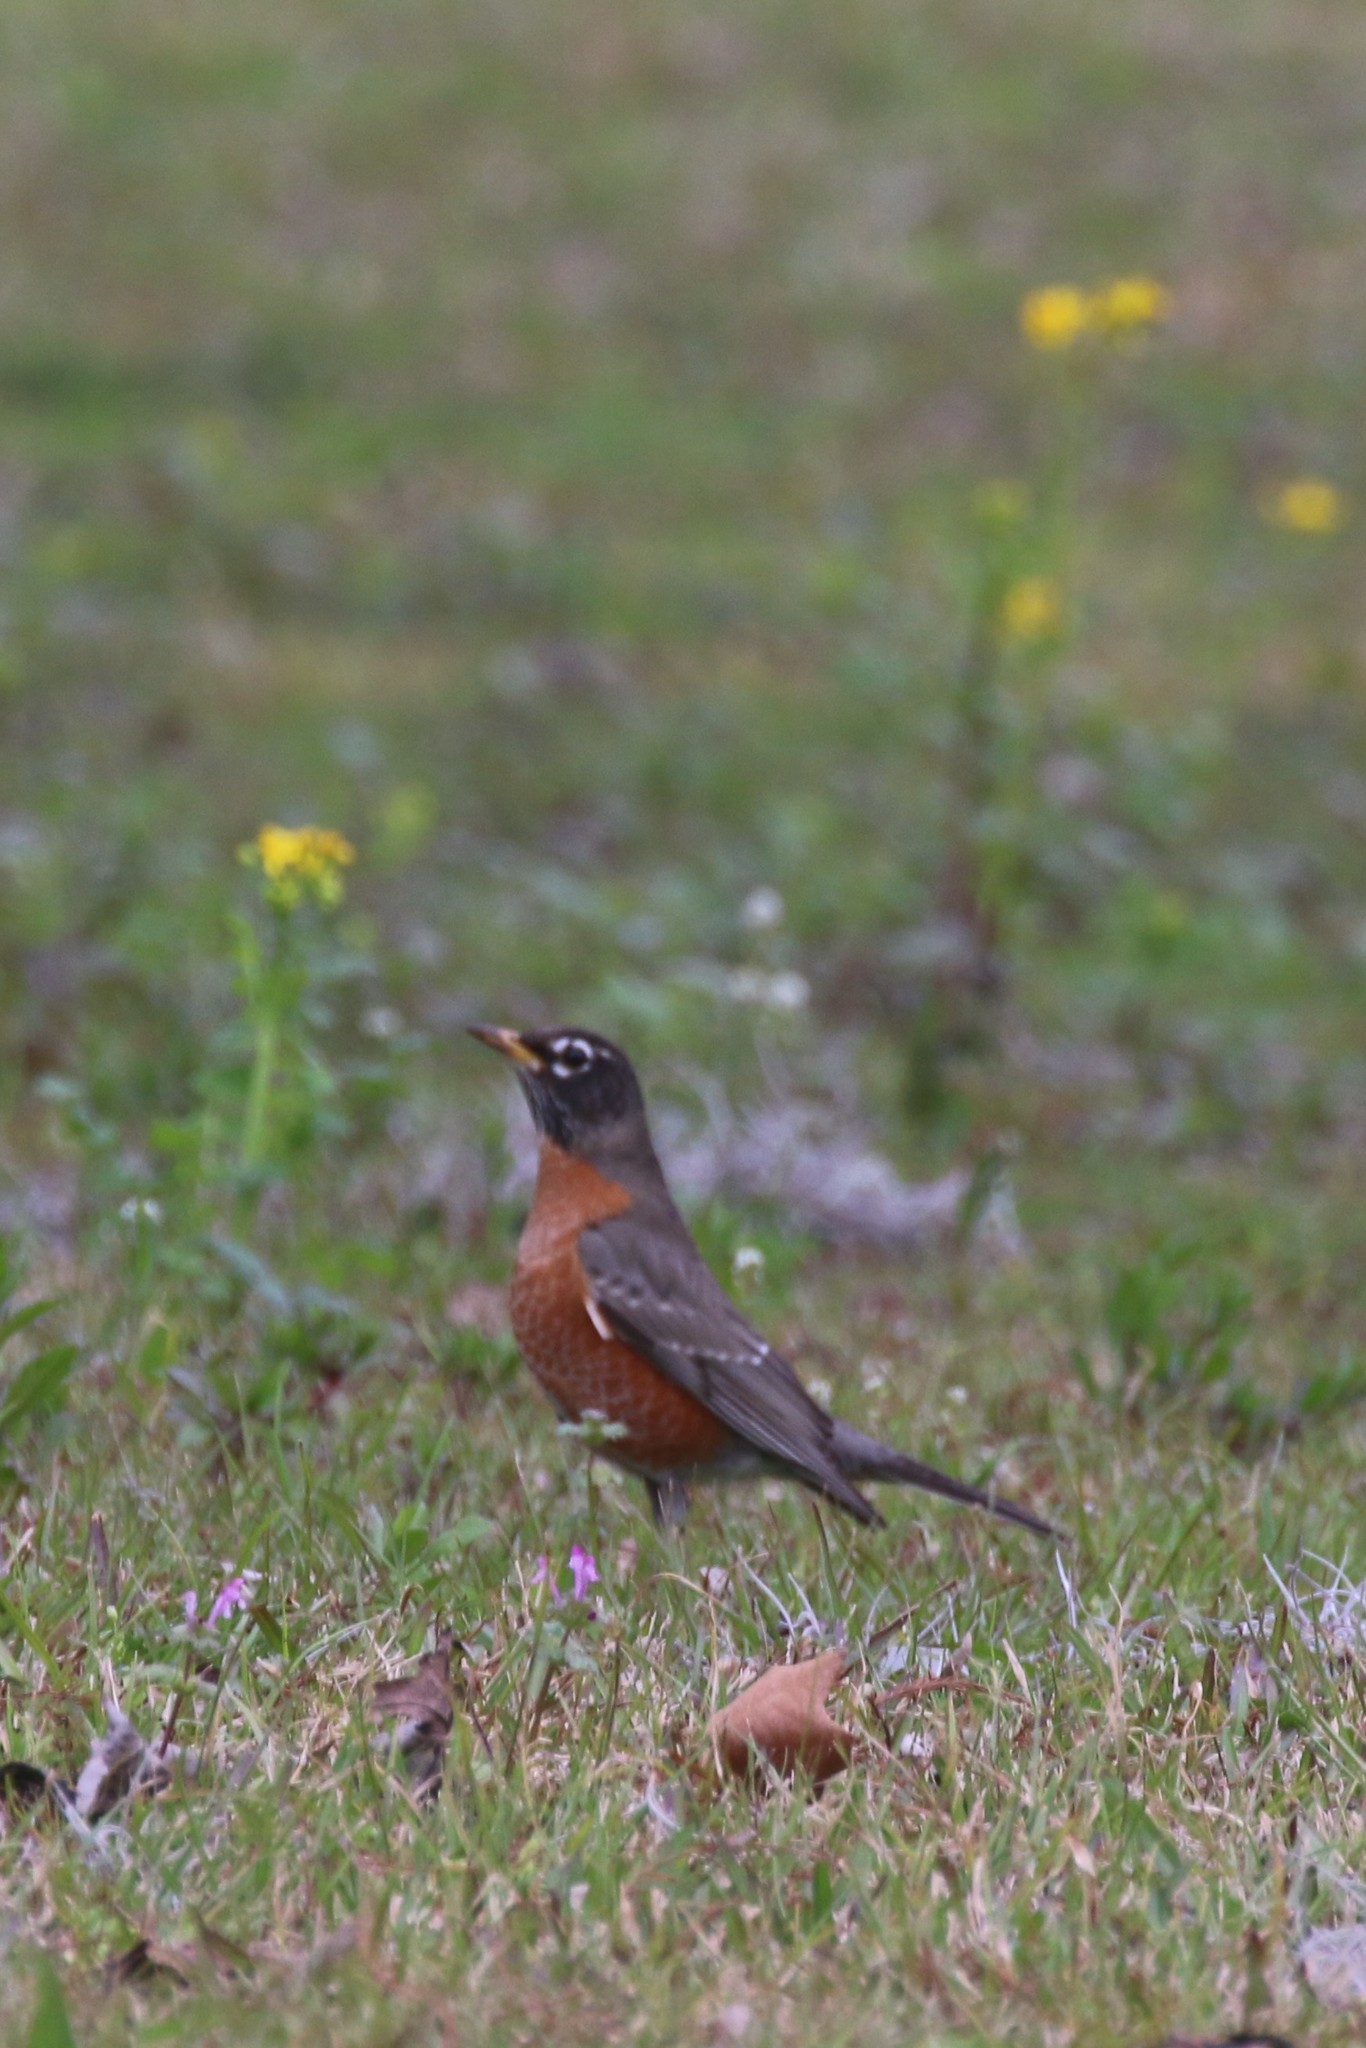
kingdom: Animalia
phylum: Chordata
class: Aves
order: Passeriformes
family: Turdidae
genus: Turdus
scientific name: Turdus migratorius
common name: American robin
